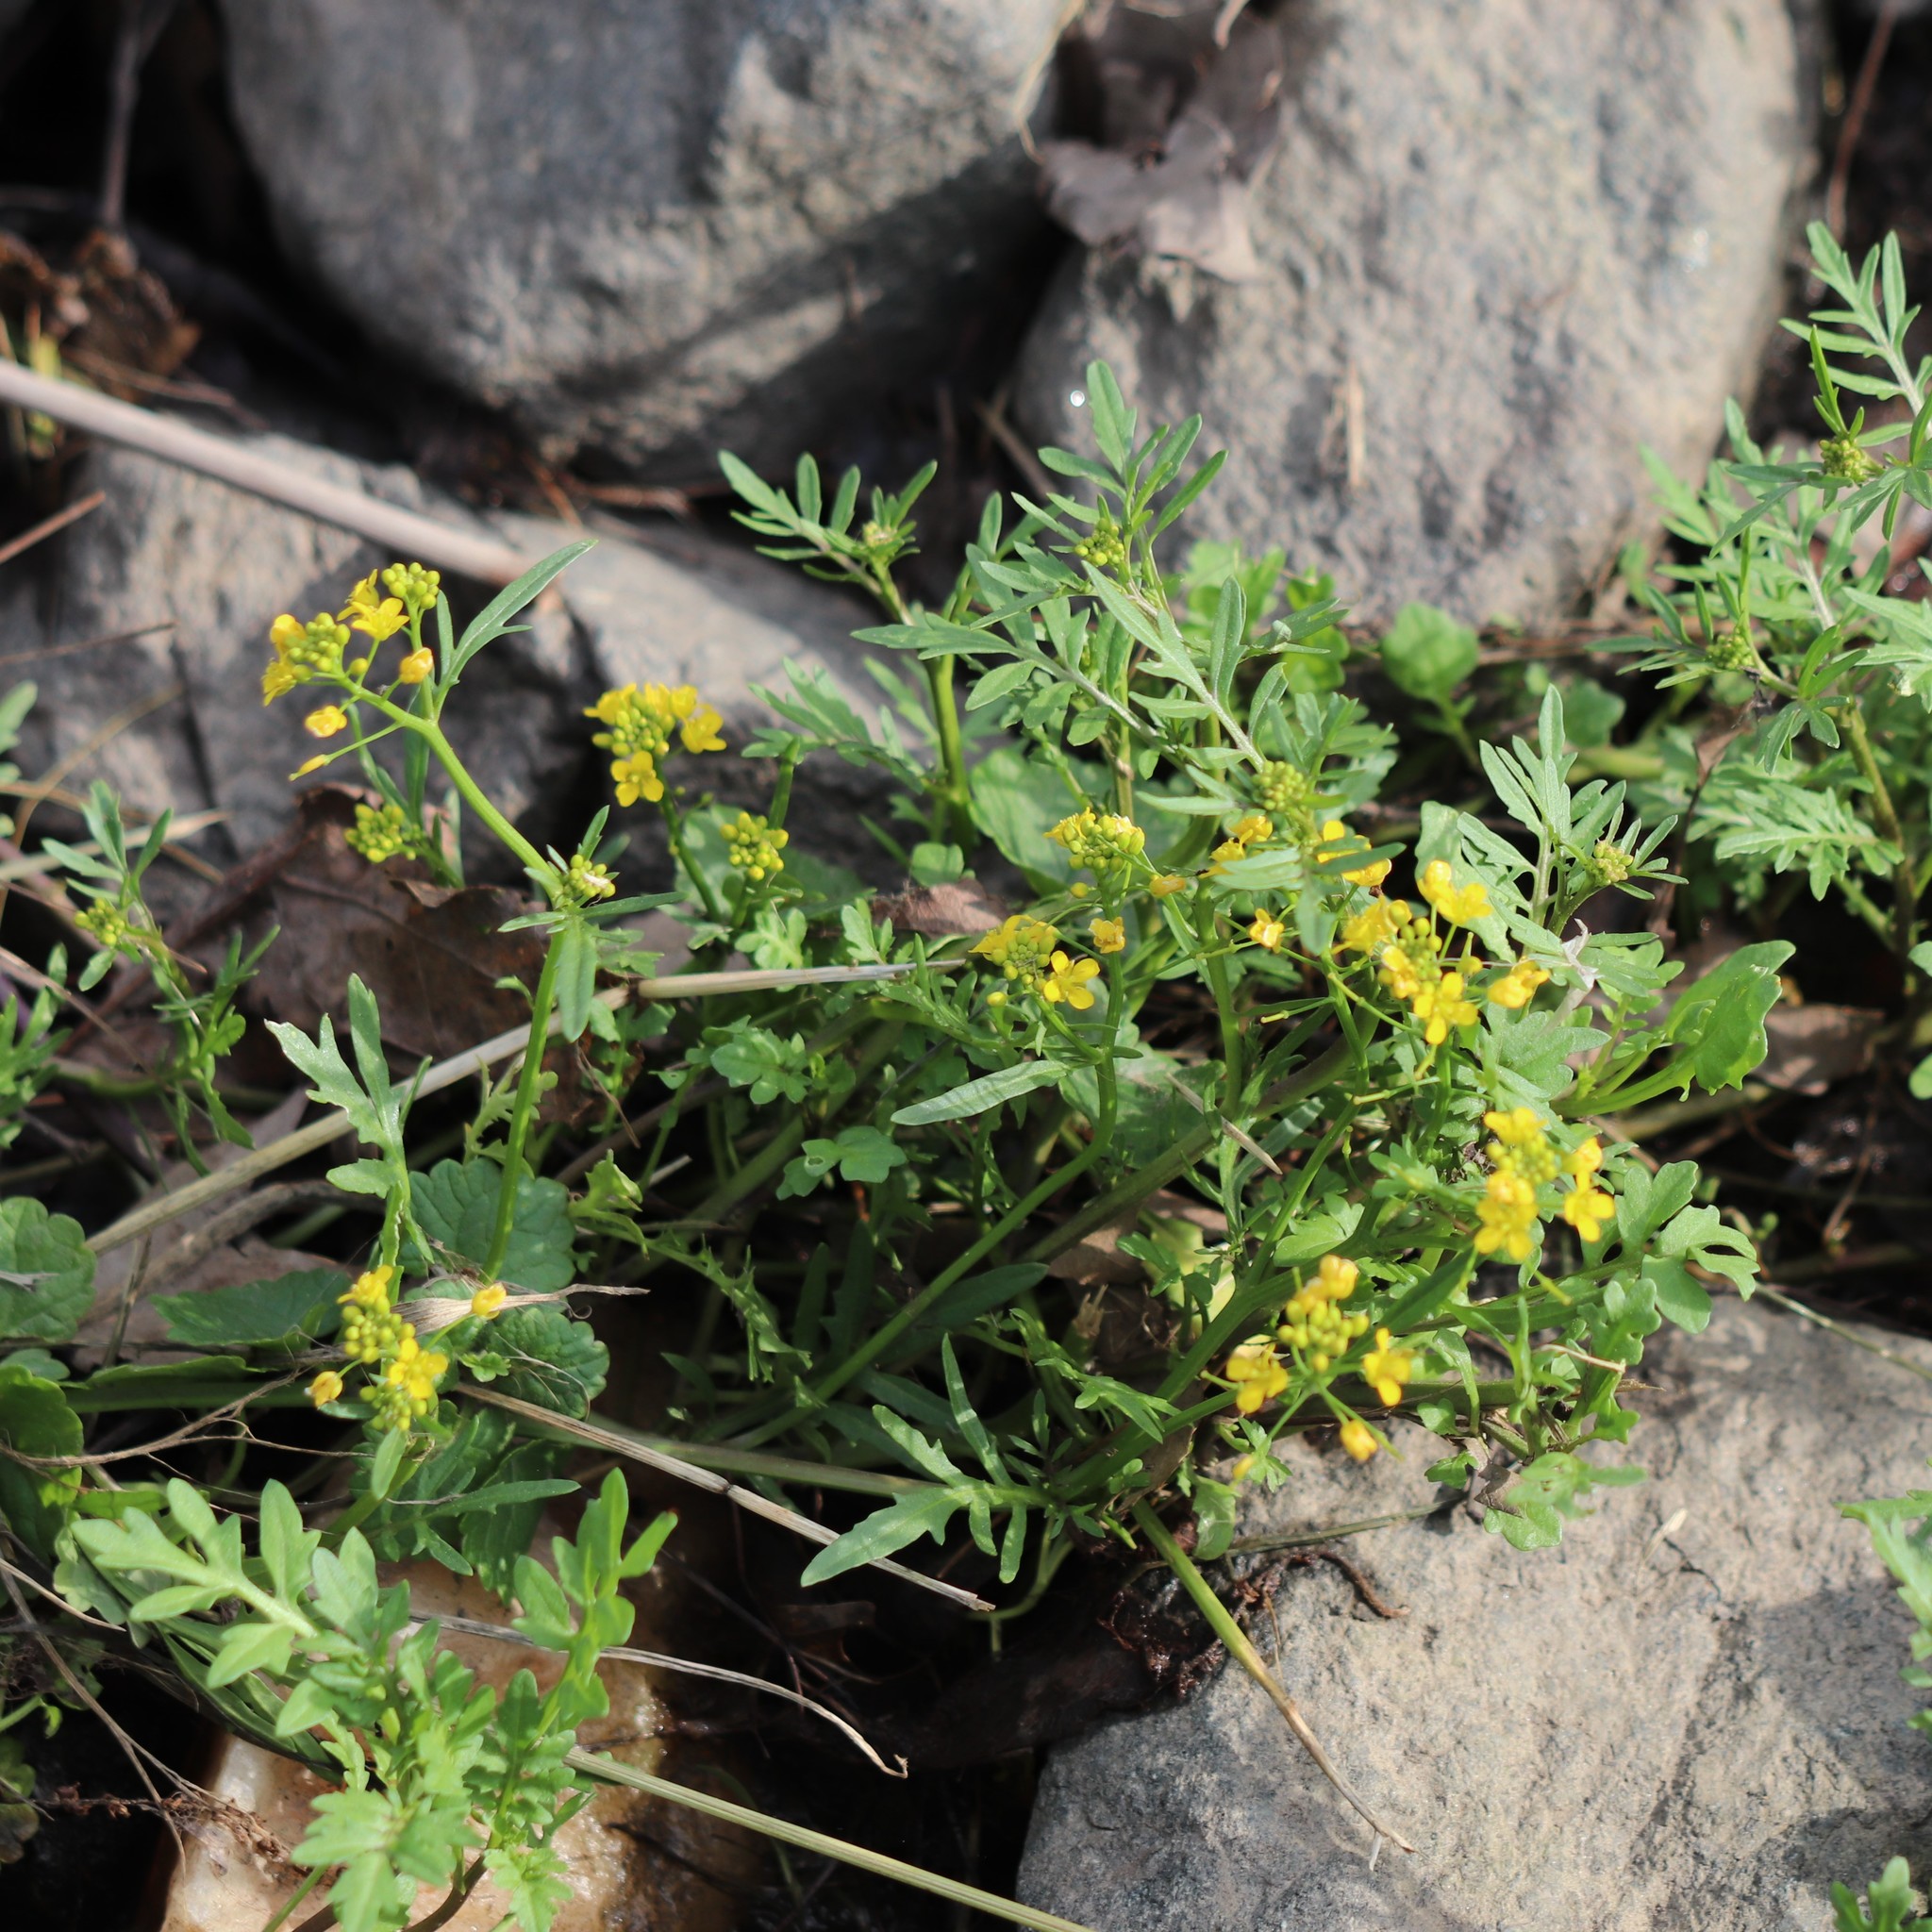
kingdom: Plantae
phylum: Tracheophyta
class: Magnoliopsida
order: Brassicales
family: Brassicaceae
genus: Rorippa
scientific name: Rorippa sylvestris
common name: Creeping yellowcress
